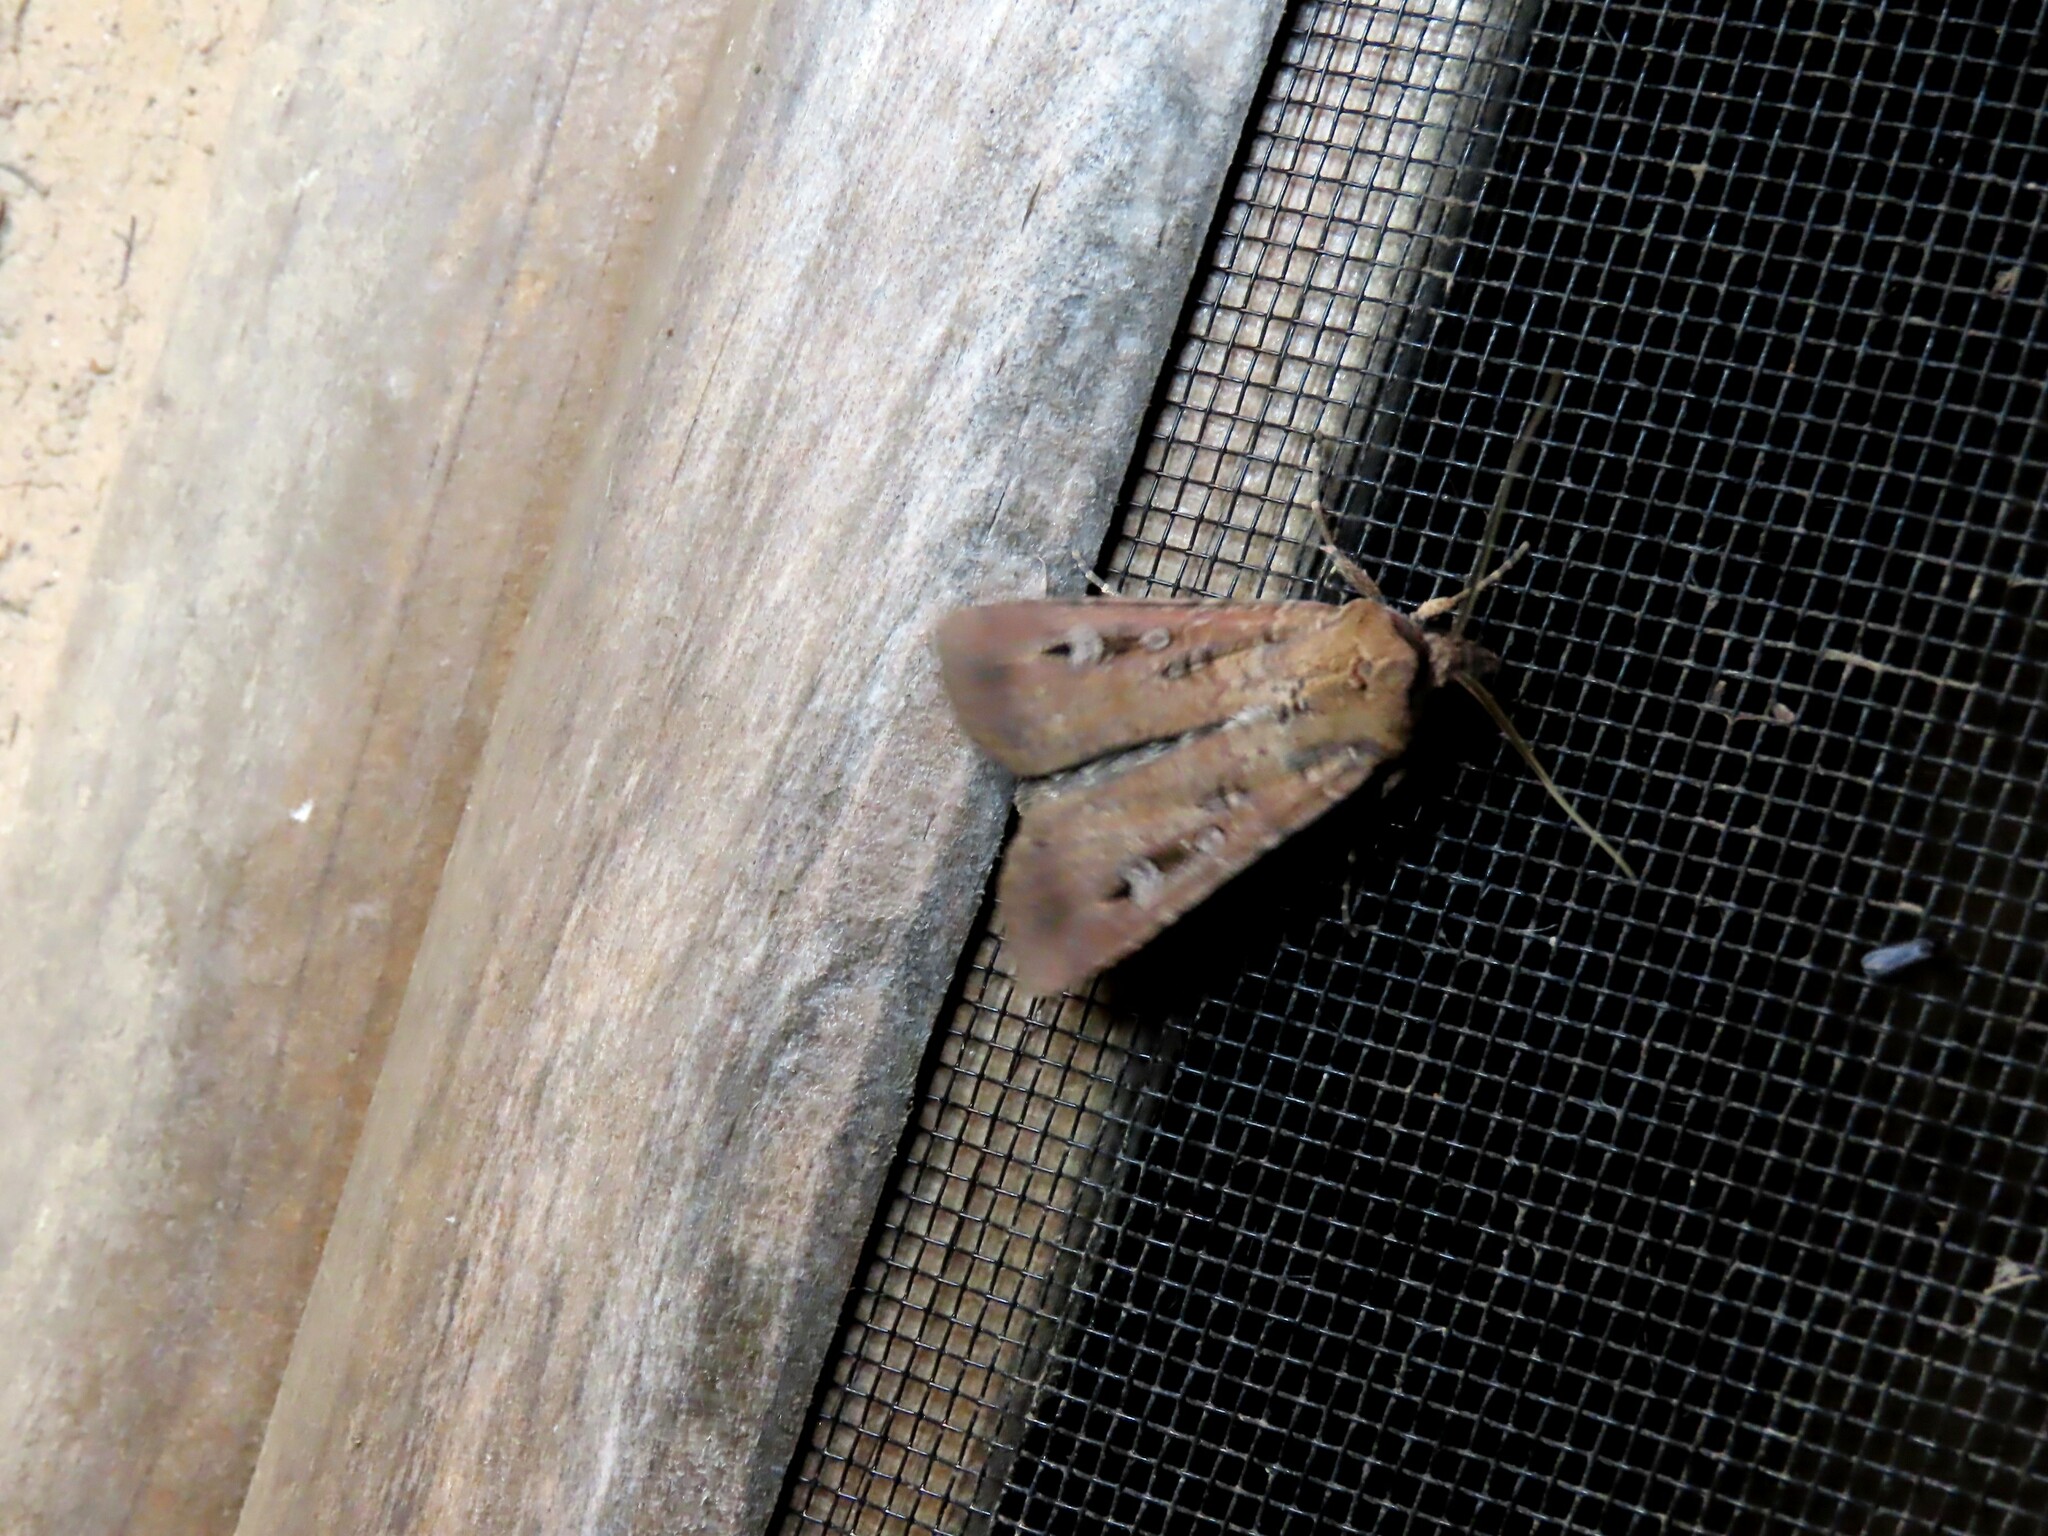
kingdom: Animalia
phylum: Arthropoda
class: Insecta
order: Lepidoptera
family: Noctuidae
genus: Agrotis
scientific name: Agrotis infusa
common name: Bogong moth
